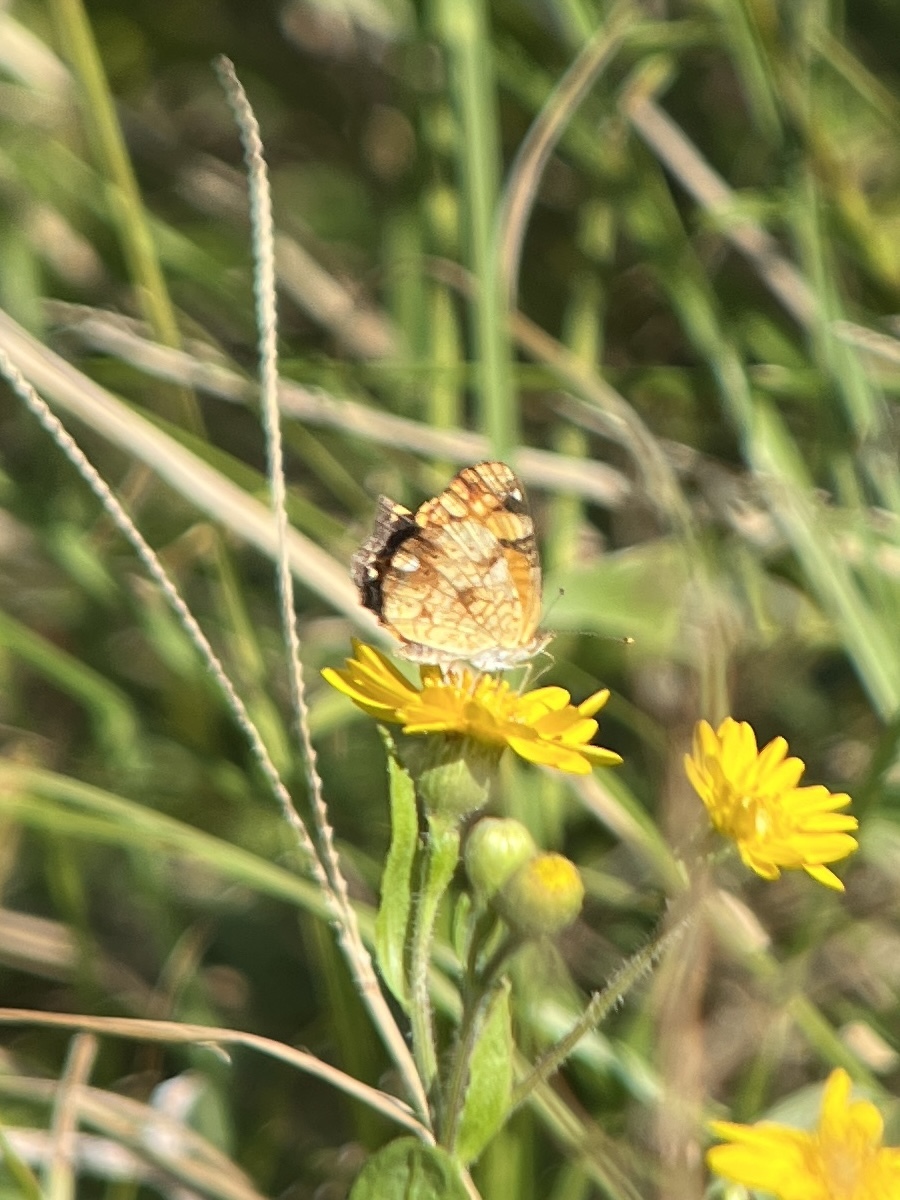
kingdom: Animalia
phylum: Arthropoda
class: Insecta
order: Lepidoptera
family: Nymphalidae
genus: Phyciodes
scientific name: Phyciodes tharos
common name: Pearl crescent
